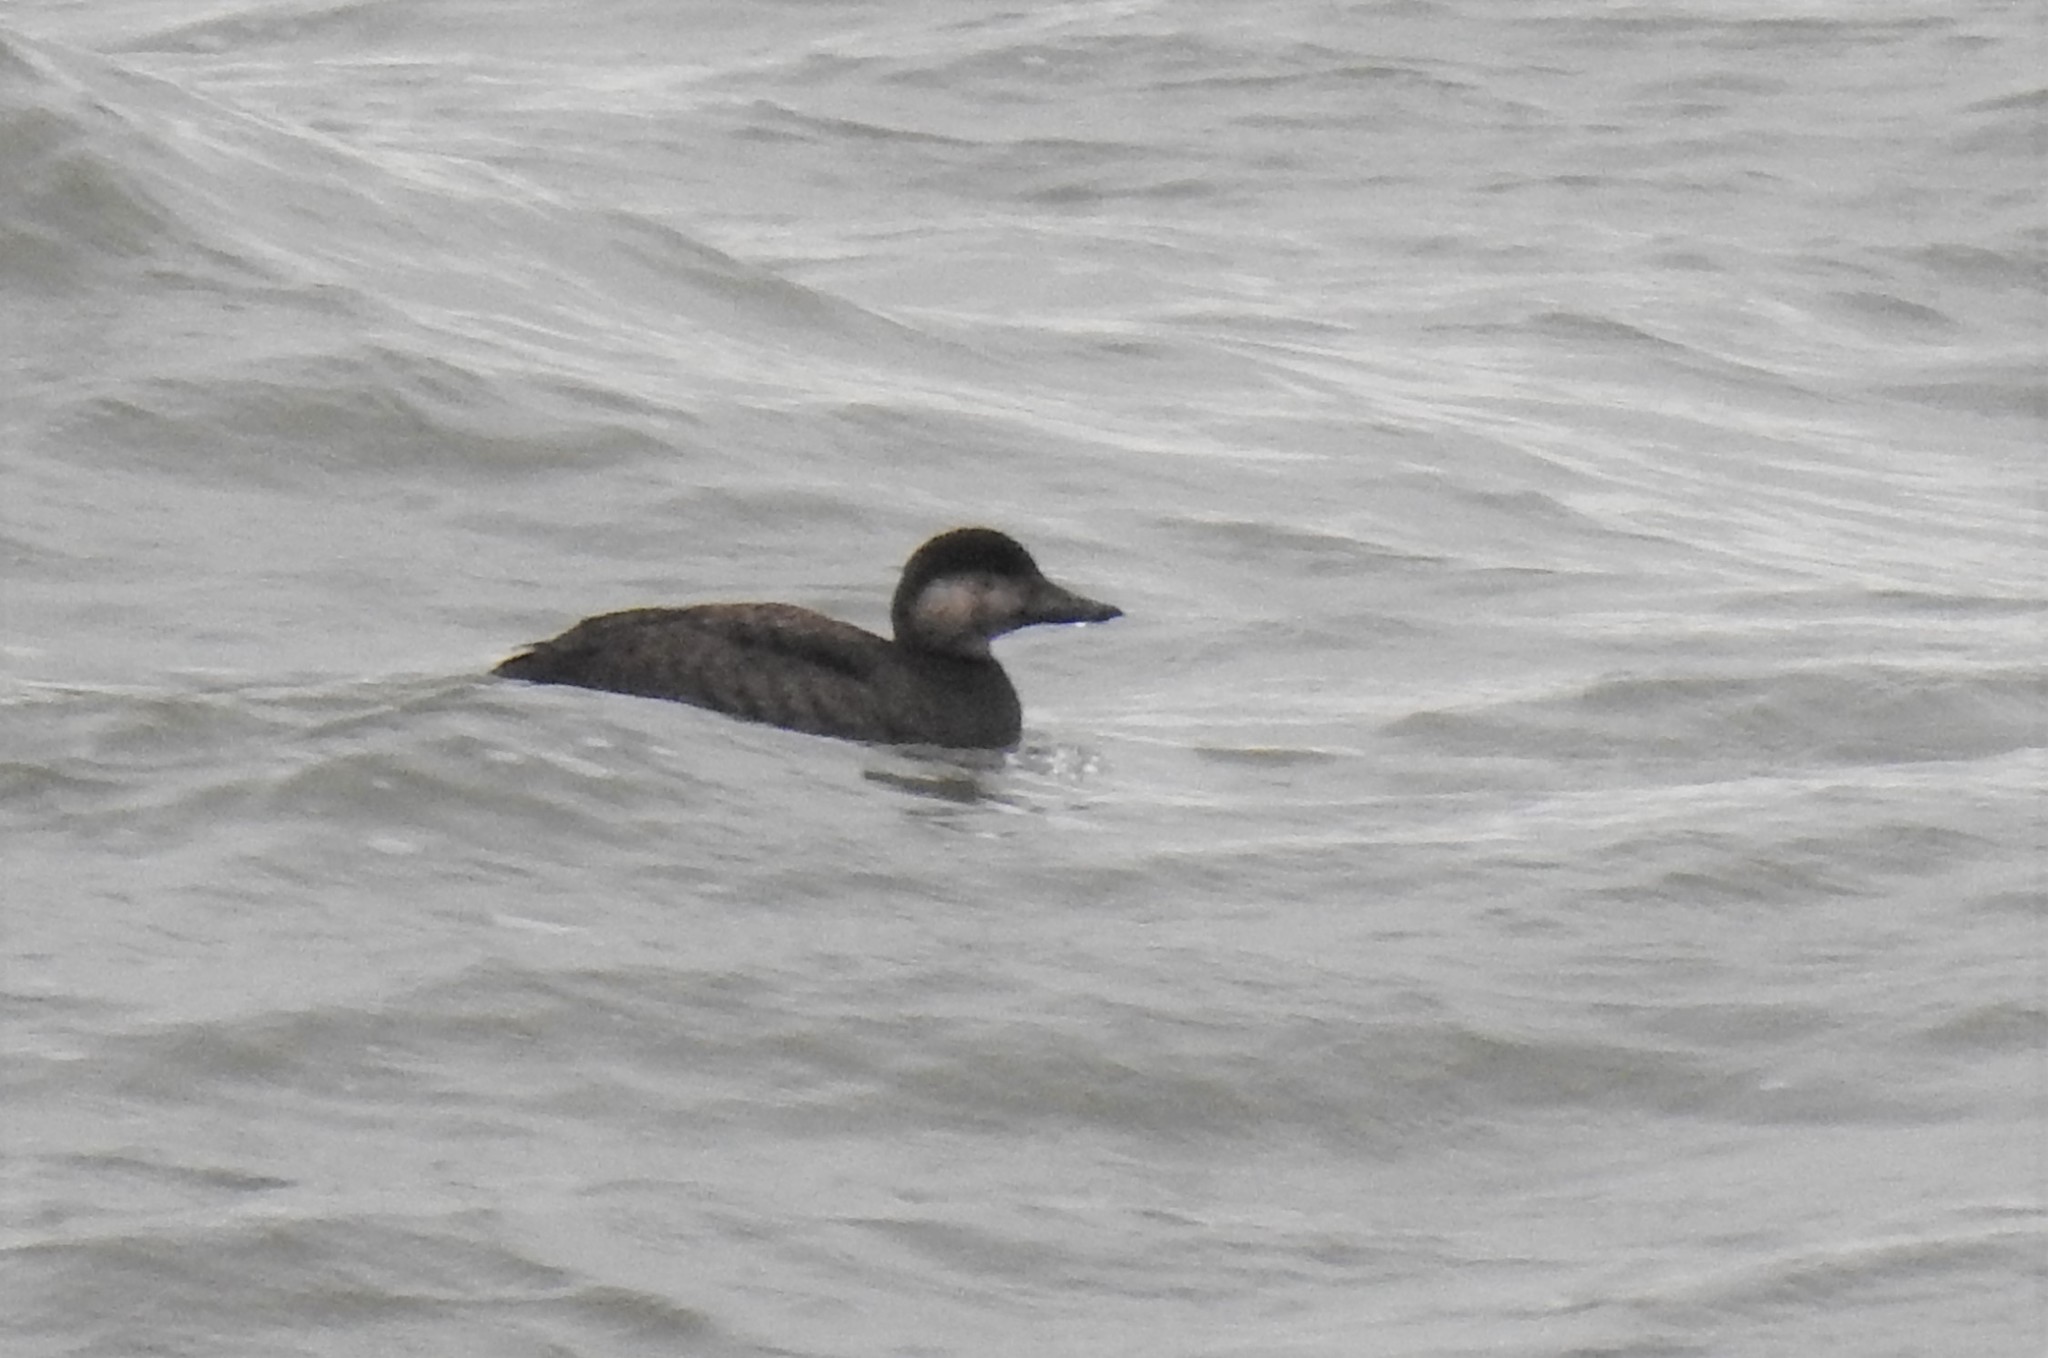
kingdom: Animalia
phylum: Chordata
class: Aves
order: Anseriformes
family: Anatidae
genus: Melanitta
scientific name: Melanitta americana
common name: Black scoter
